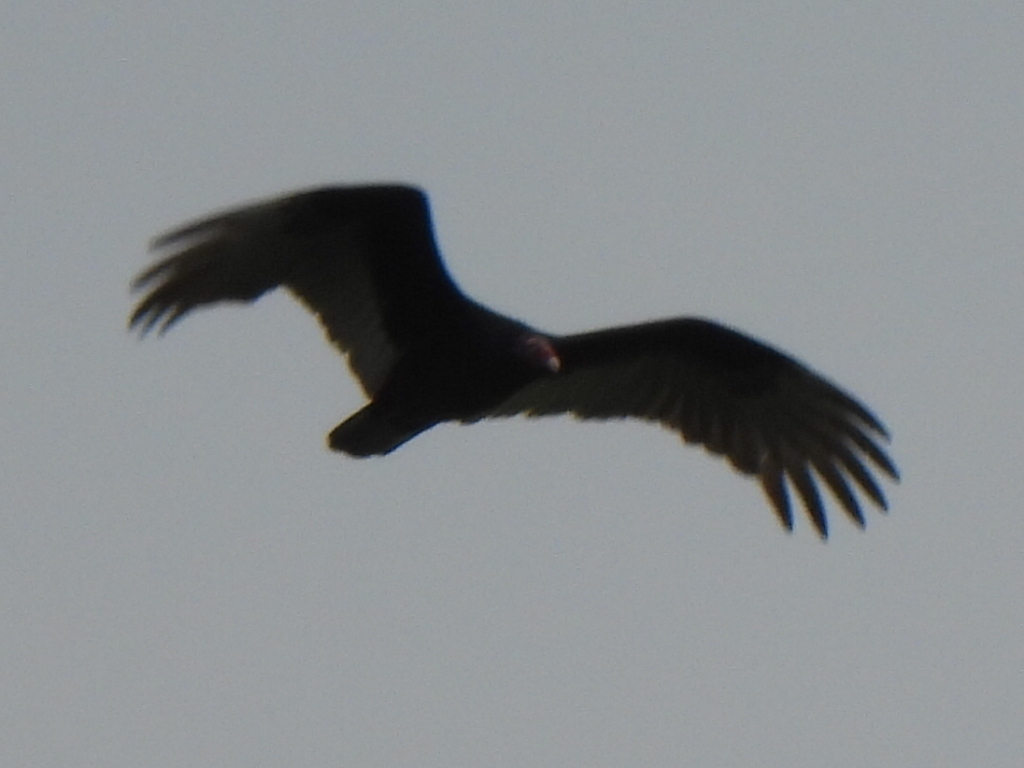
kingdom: Animalia
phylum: Chordata
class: Aves
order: Accipitriformes
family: Cathartidae
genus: Cathartes
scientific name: Cathartes aura
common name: Turkey vulture
